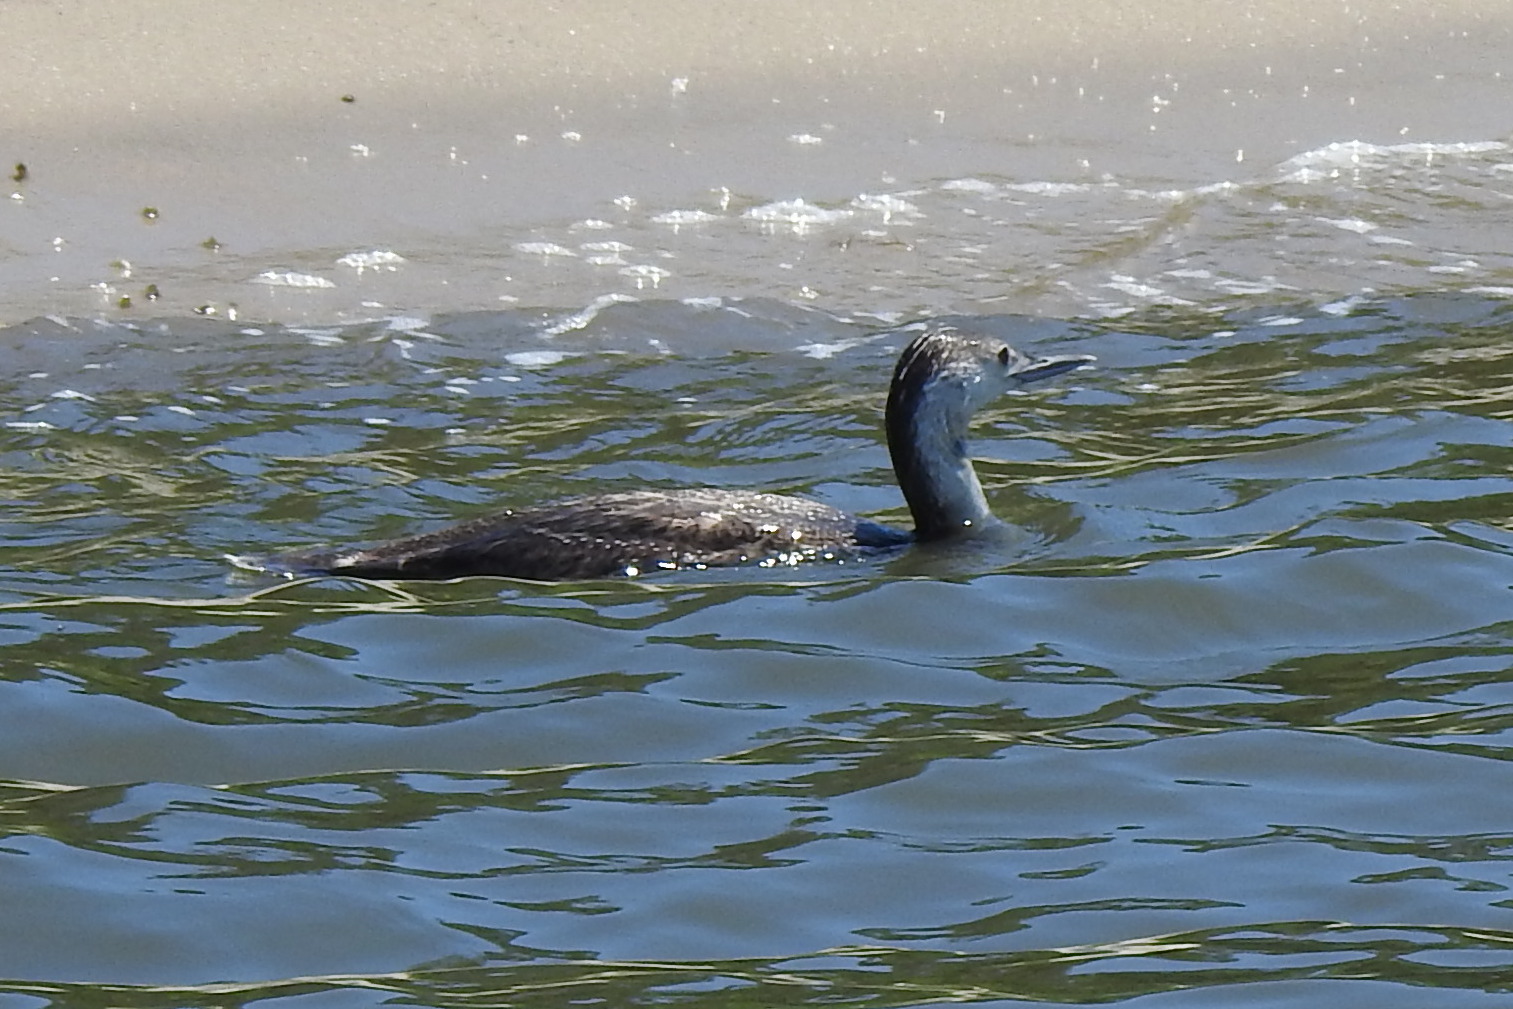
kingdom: Animalia
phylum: Chordata
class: Aves
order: Gaviiformes
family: Gaviidae
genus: Gavia
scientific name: Gavia stellata
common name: Red-throated loon
